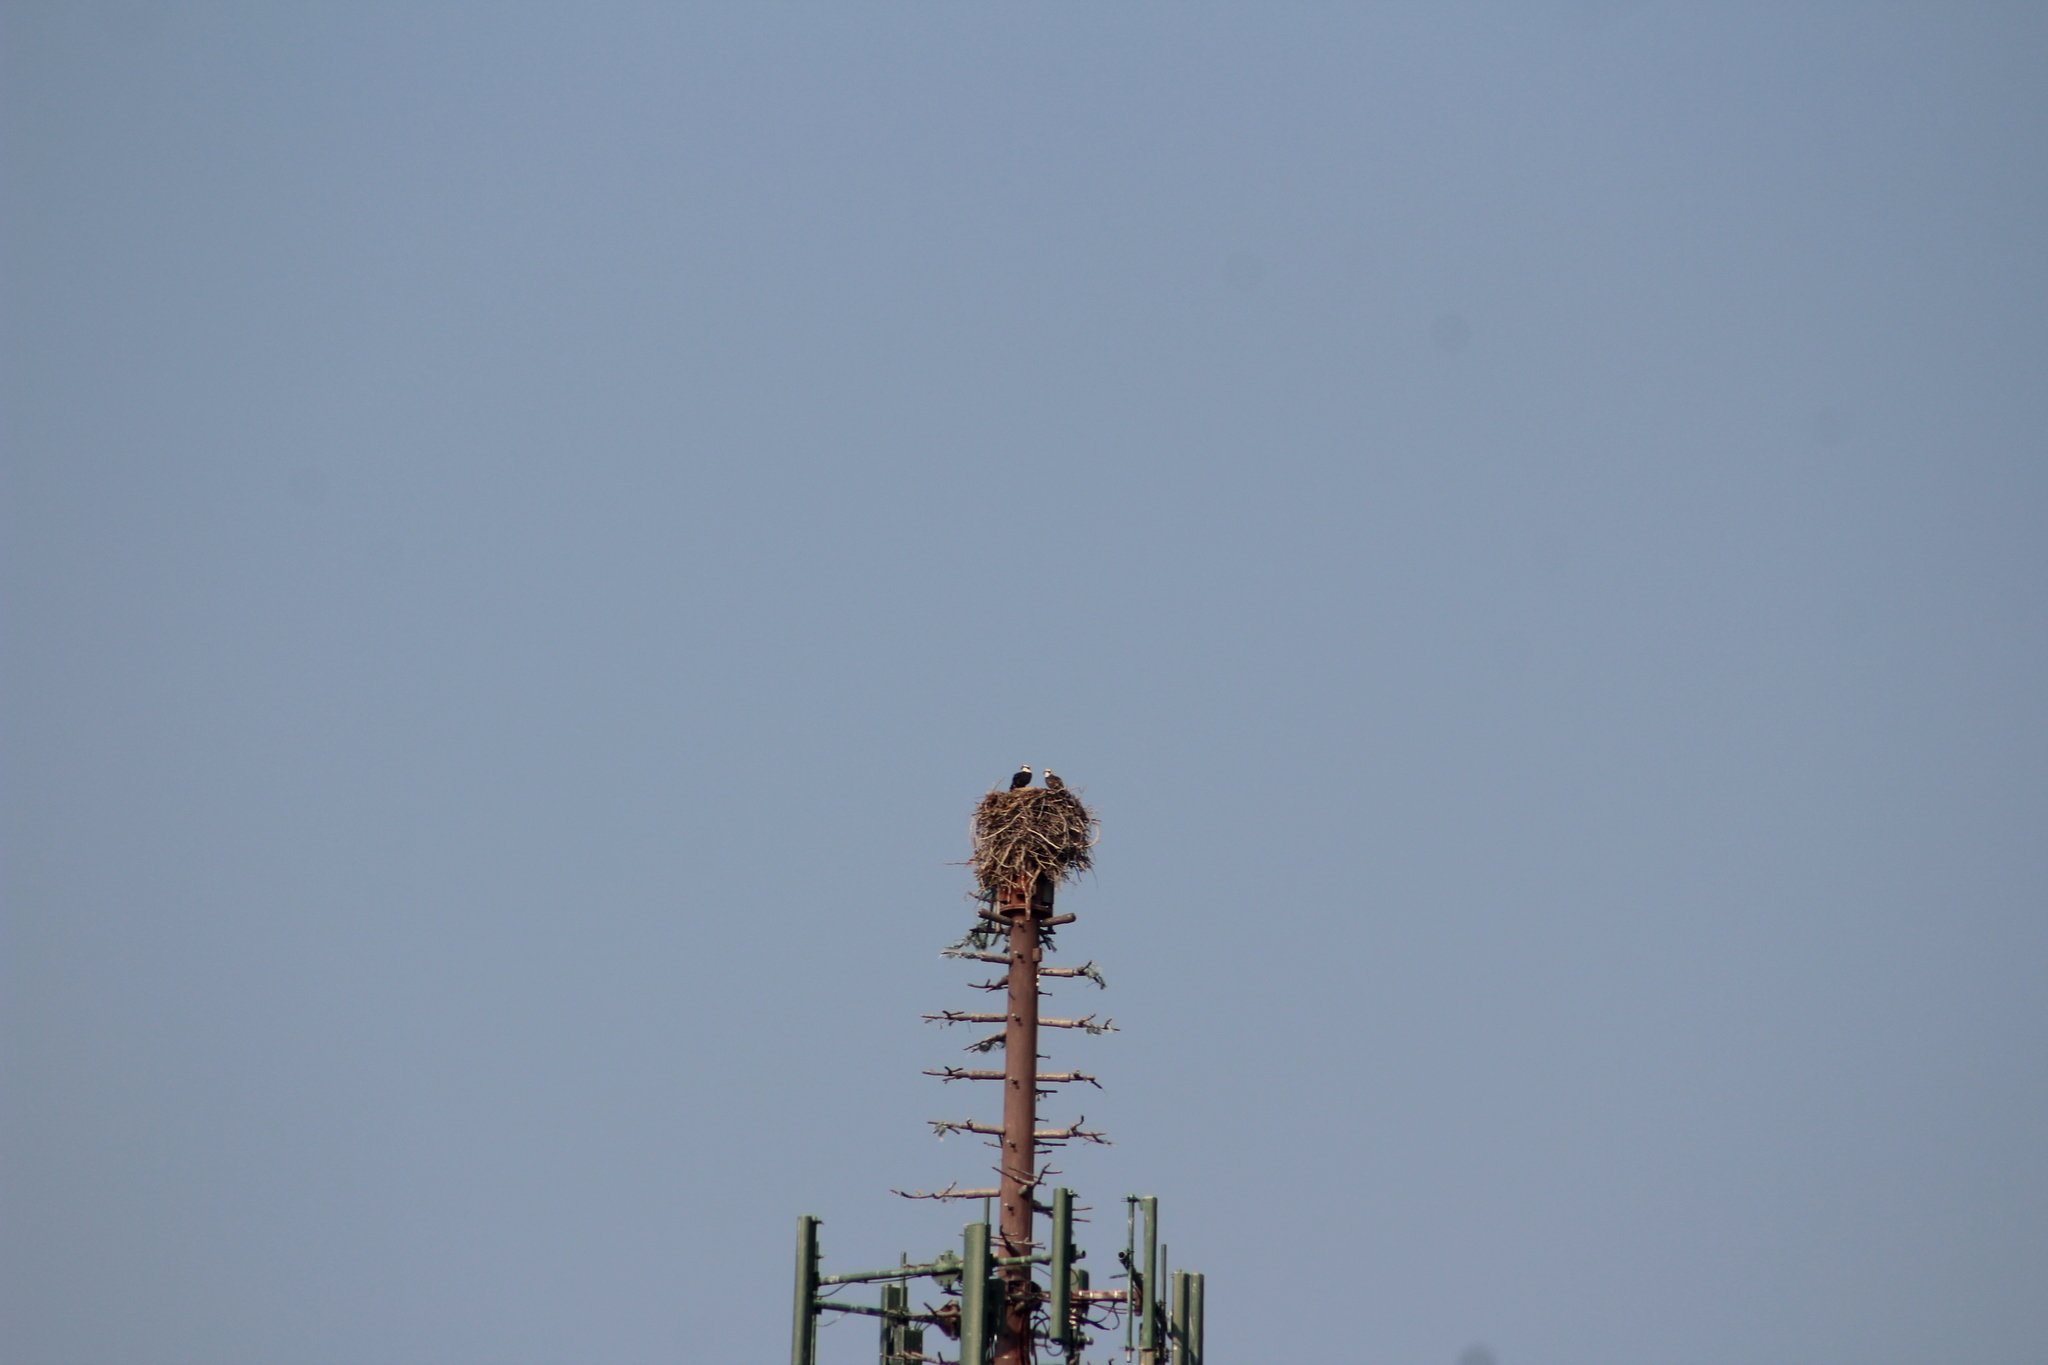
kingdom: Animalia
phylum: Chordata
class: Aves
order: Accipitriformes
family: Pandionidae
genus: Pandion
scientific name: Pandion haliaetus
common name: Osprey
